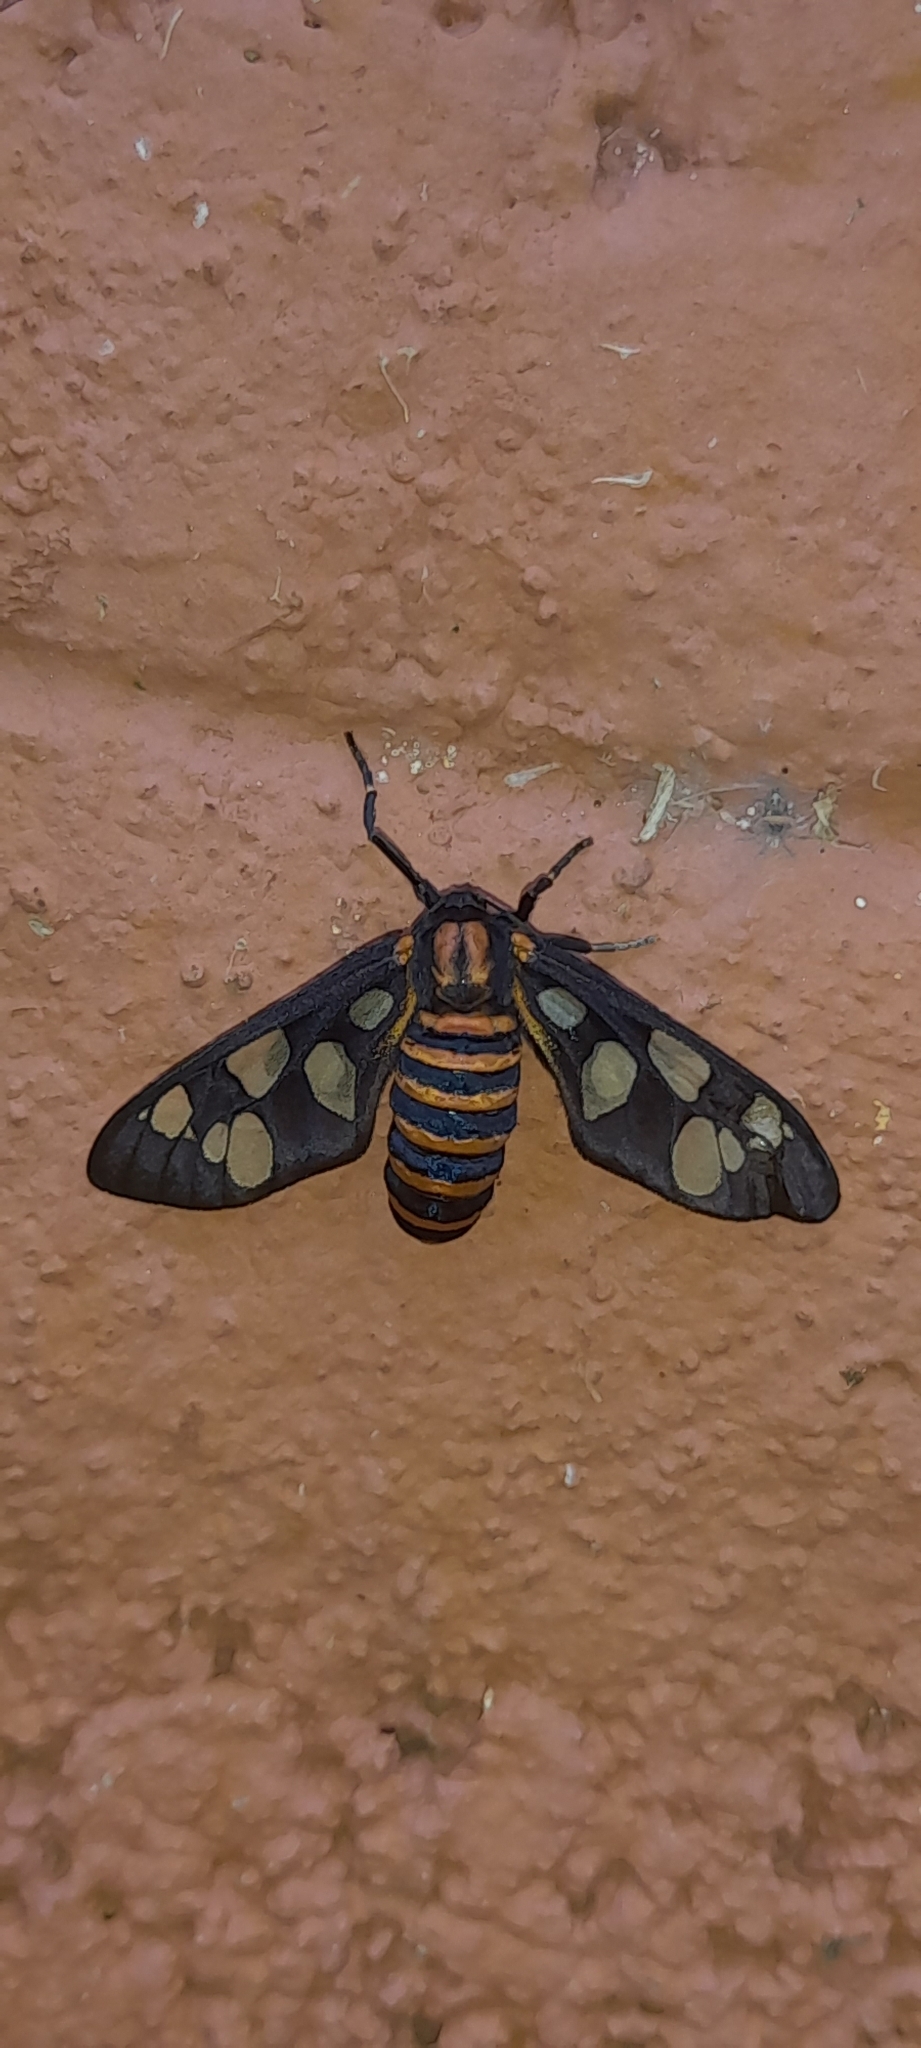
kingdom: Animalia
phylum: Arthropoda
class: Insecta
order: Lepidoptera
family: Erebidae
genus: Amata
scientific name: Amata passalis
